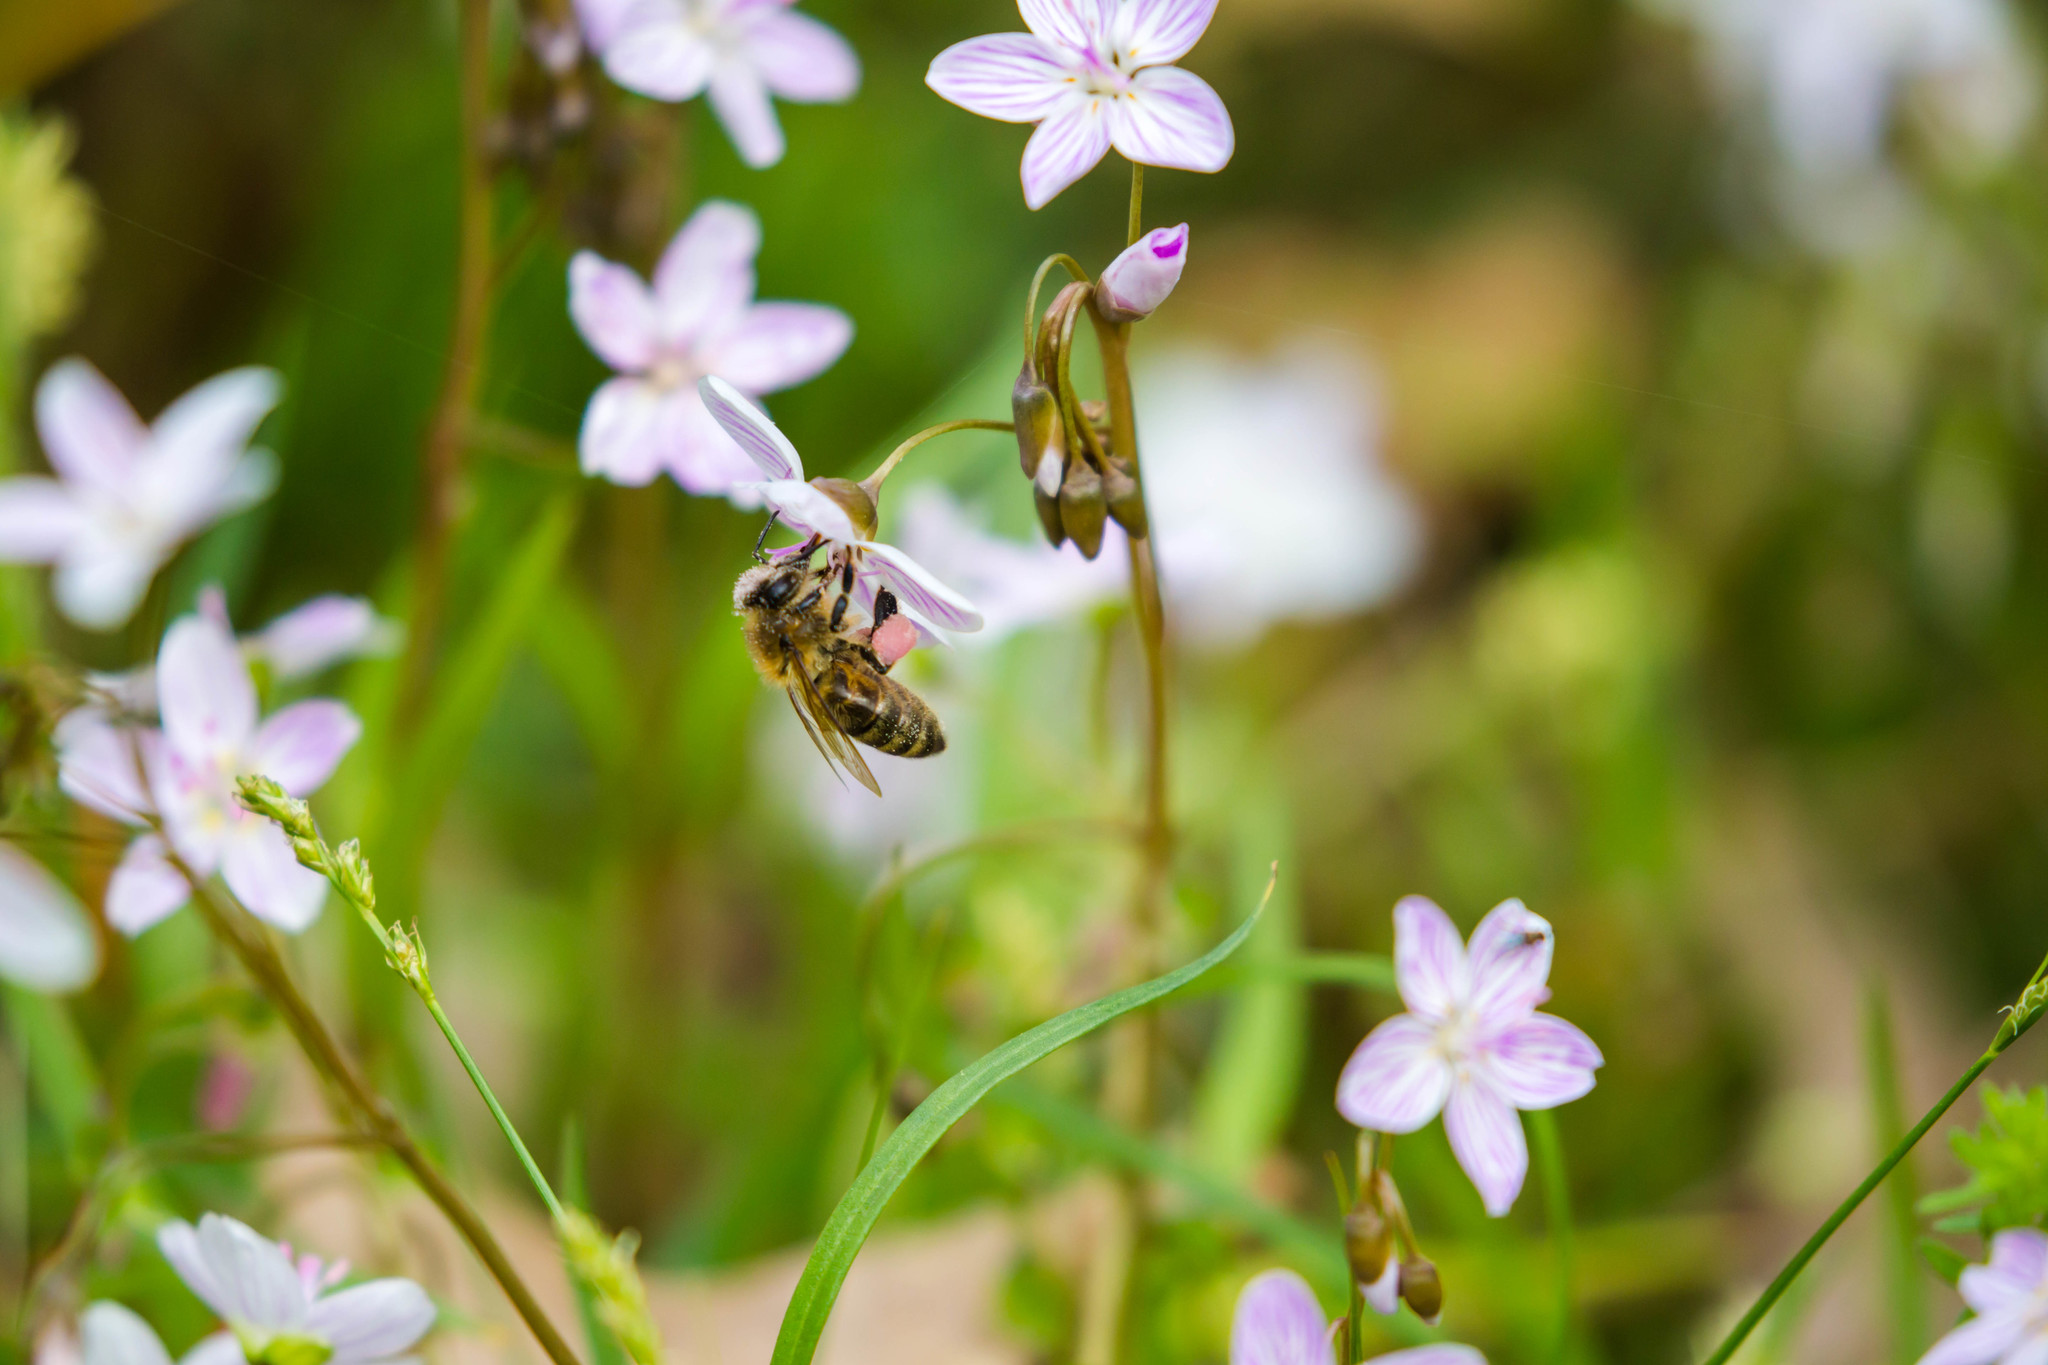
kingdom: Animalia
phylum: Arthropoda
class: Insecta
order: Hymenoptera
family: Apidae
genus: Apis
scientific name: Apis mellifera
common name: Honey bee
